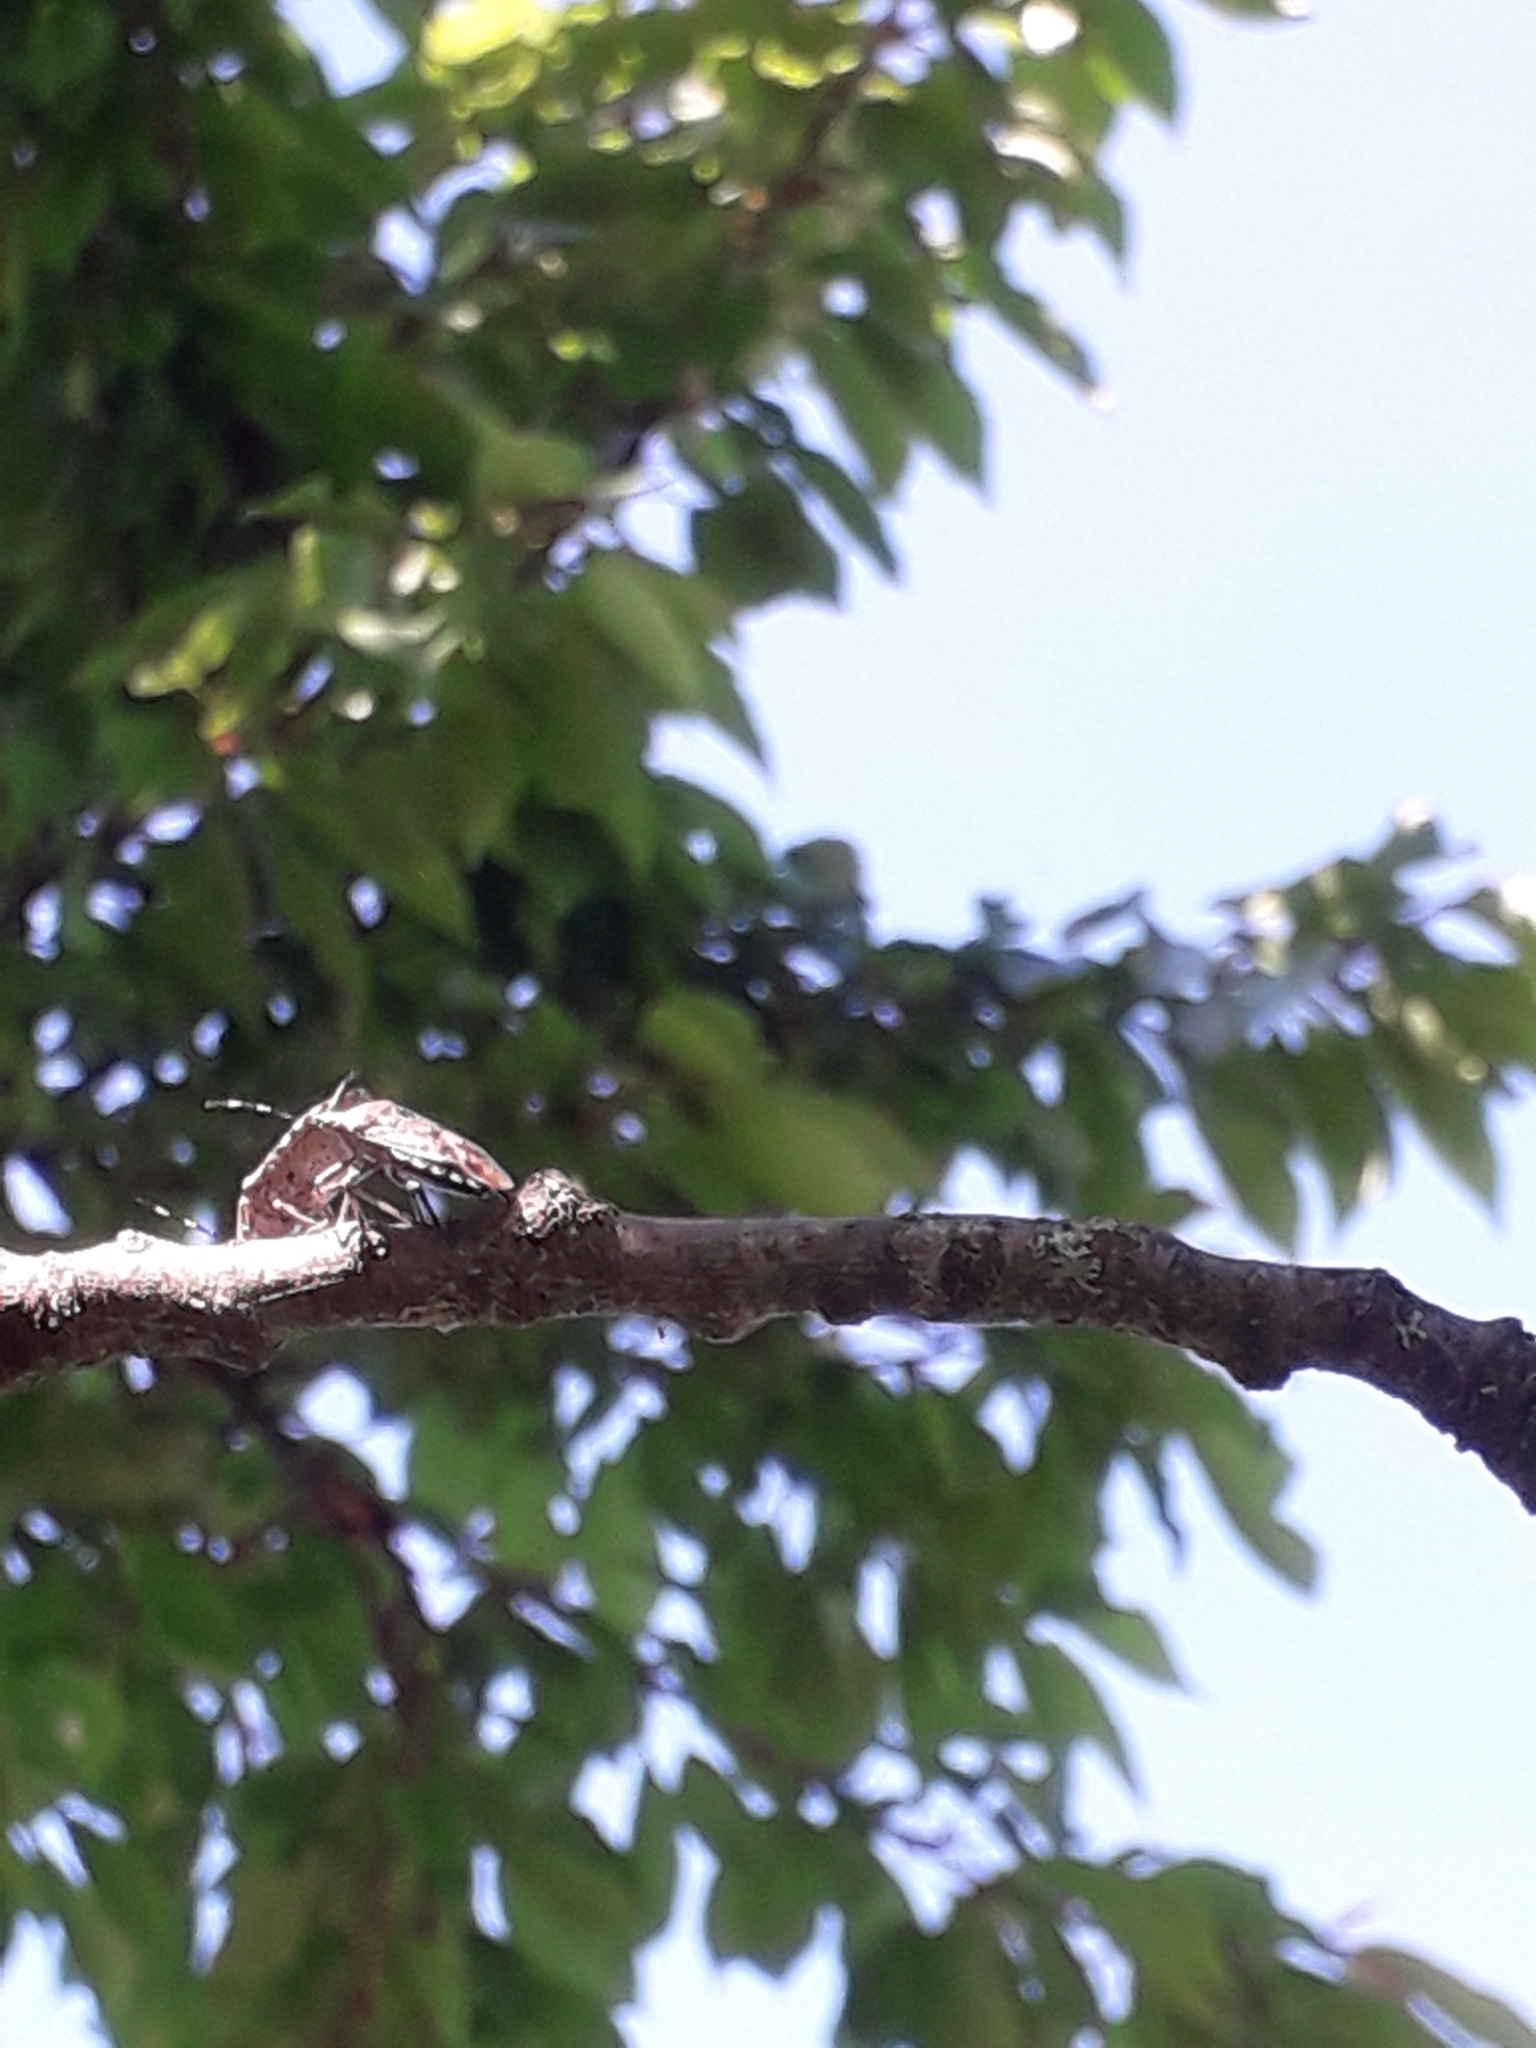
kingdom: Animalia
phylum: Arthropoda
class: Insecta
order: Hemiptera
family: Pentatomidae
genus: Rhaphigaster
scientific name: Rhaphigaster nebulosa
